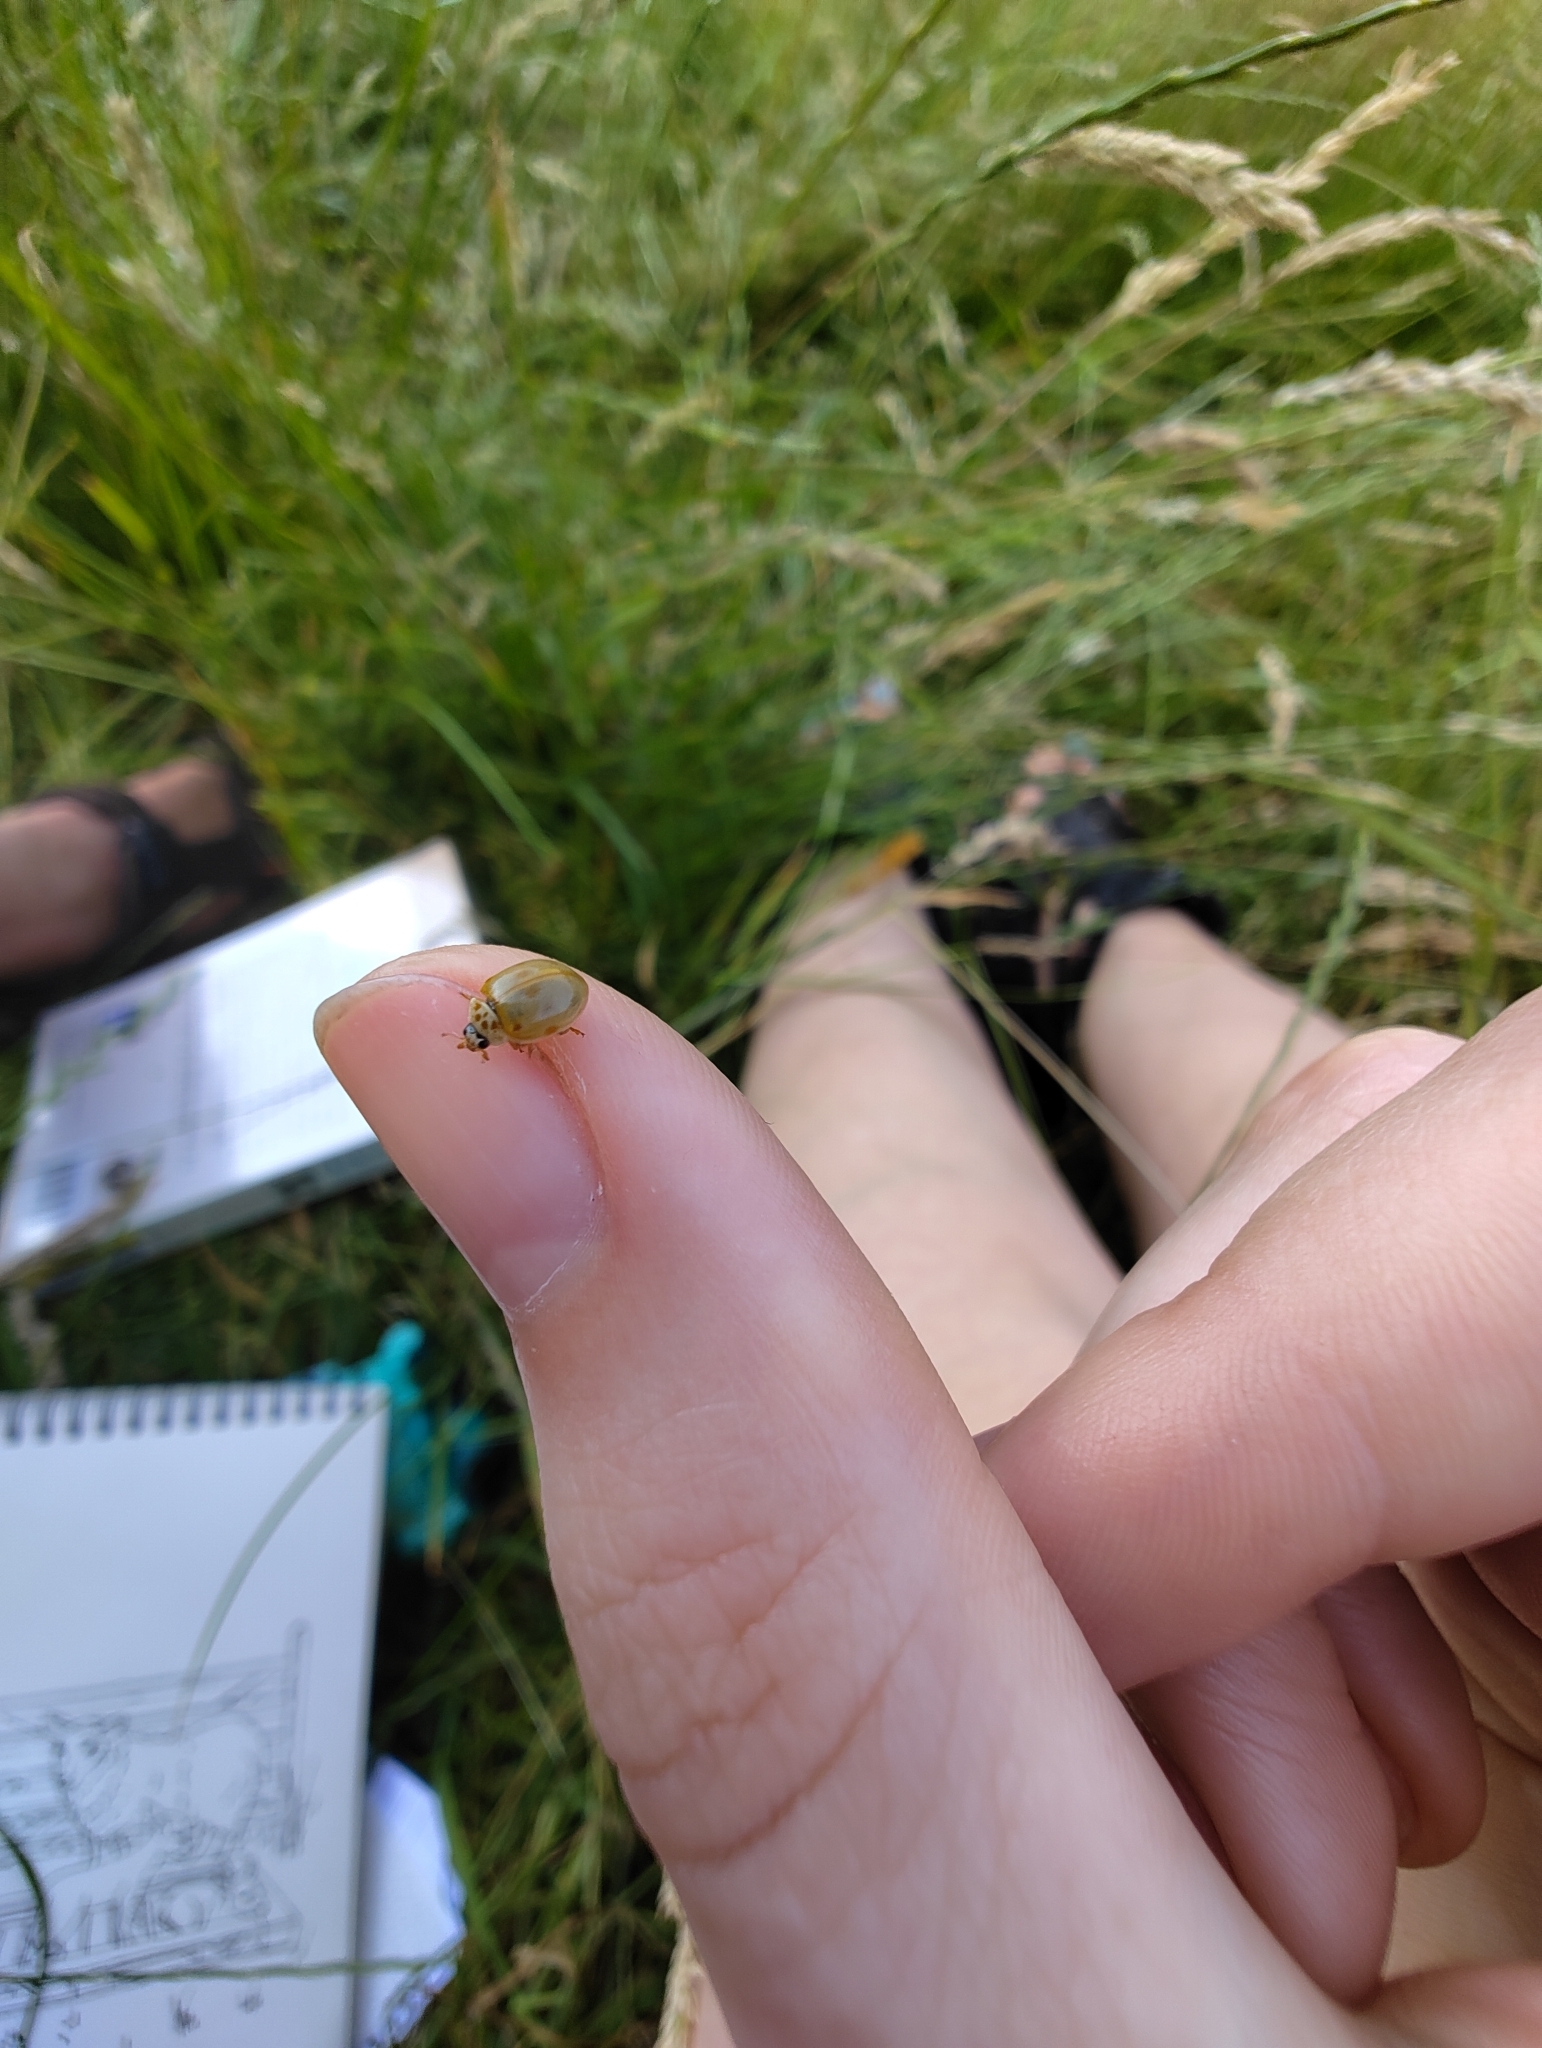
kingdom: Animalia
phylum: Arthropoda
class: Insecta
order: Coleoptera
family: Coccinellidae
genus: Adalia
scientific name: Adalia decempunctata
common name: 10-spot ladybird
